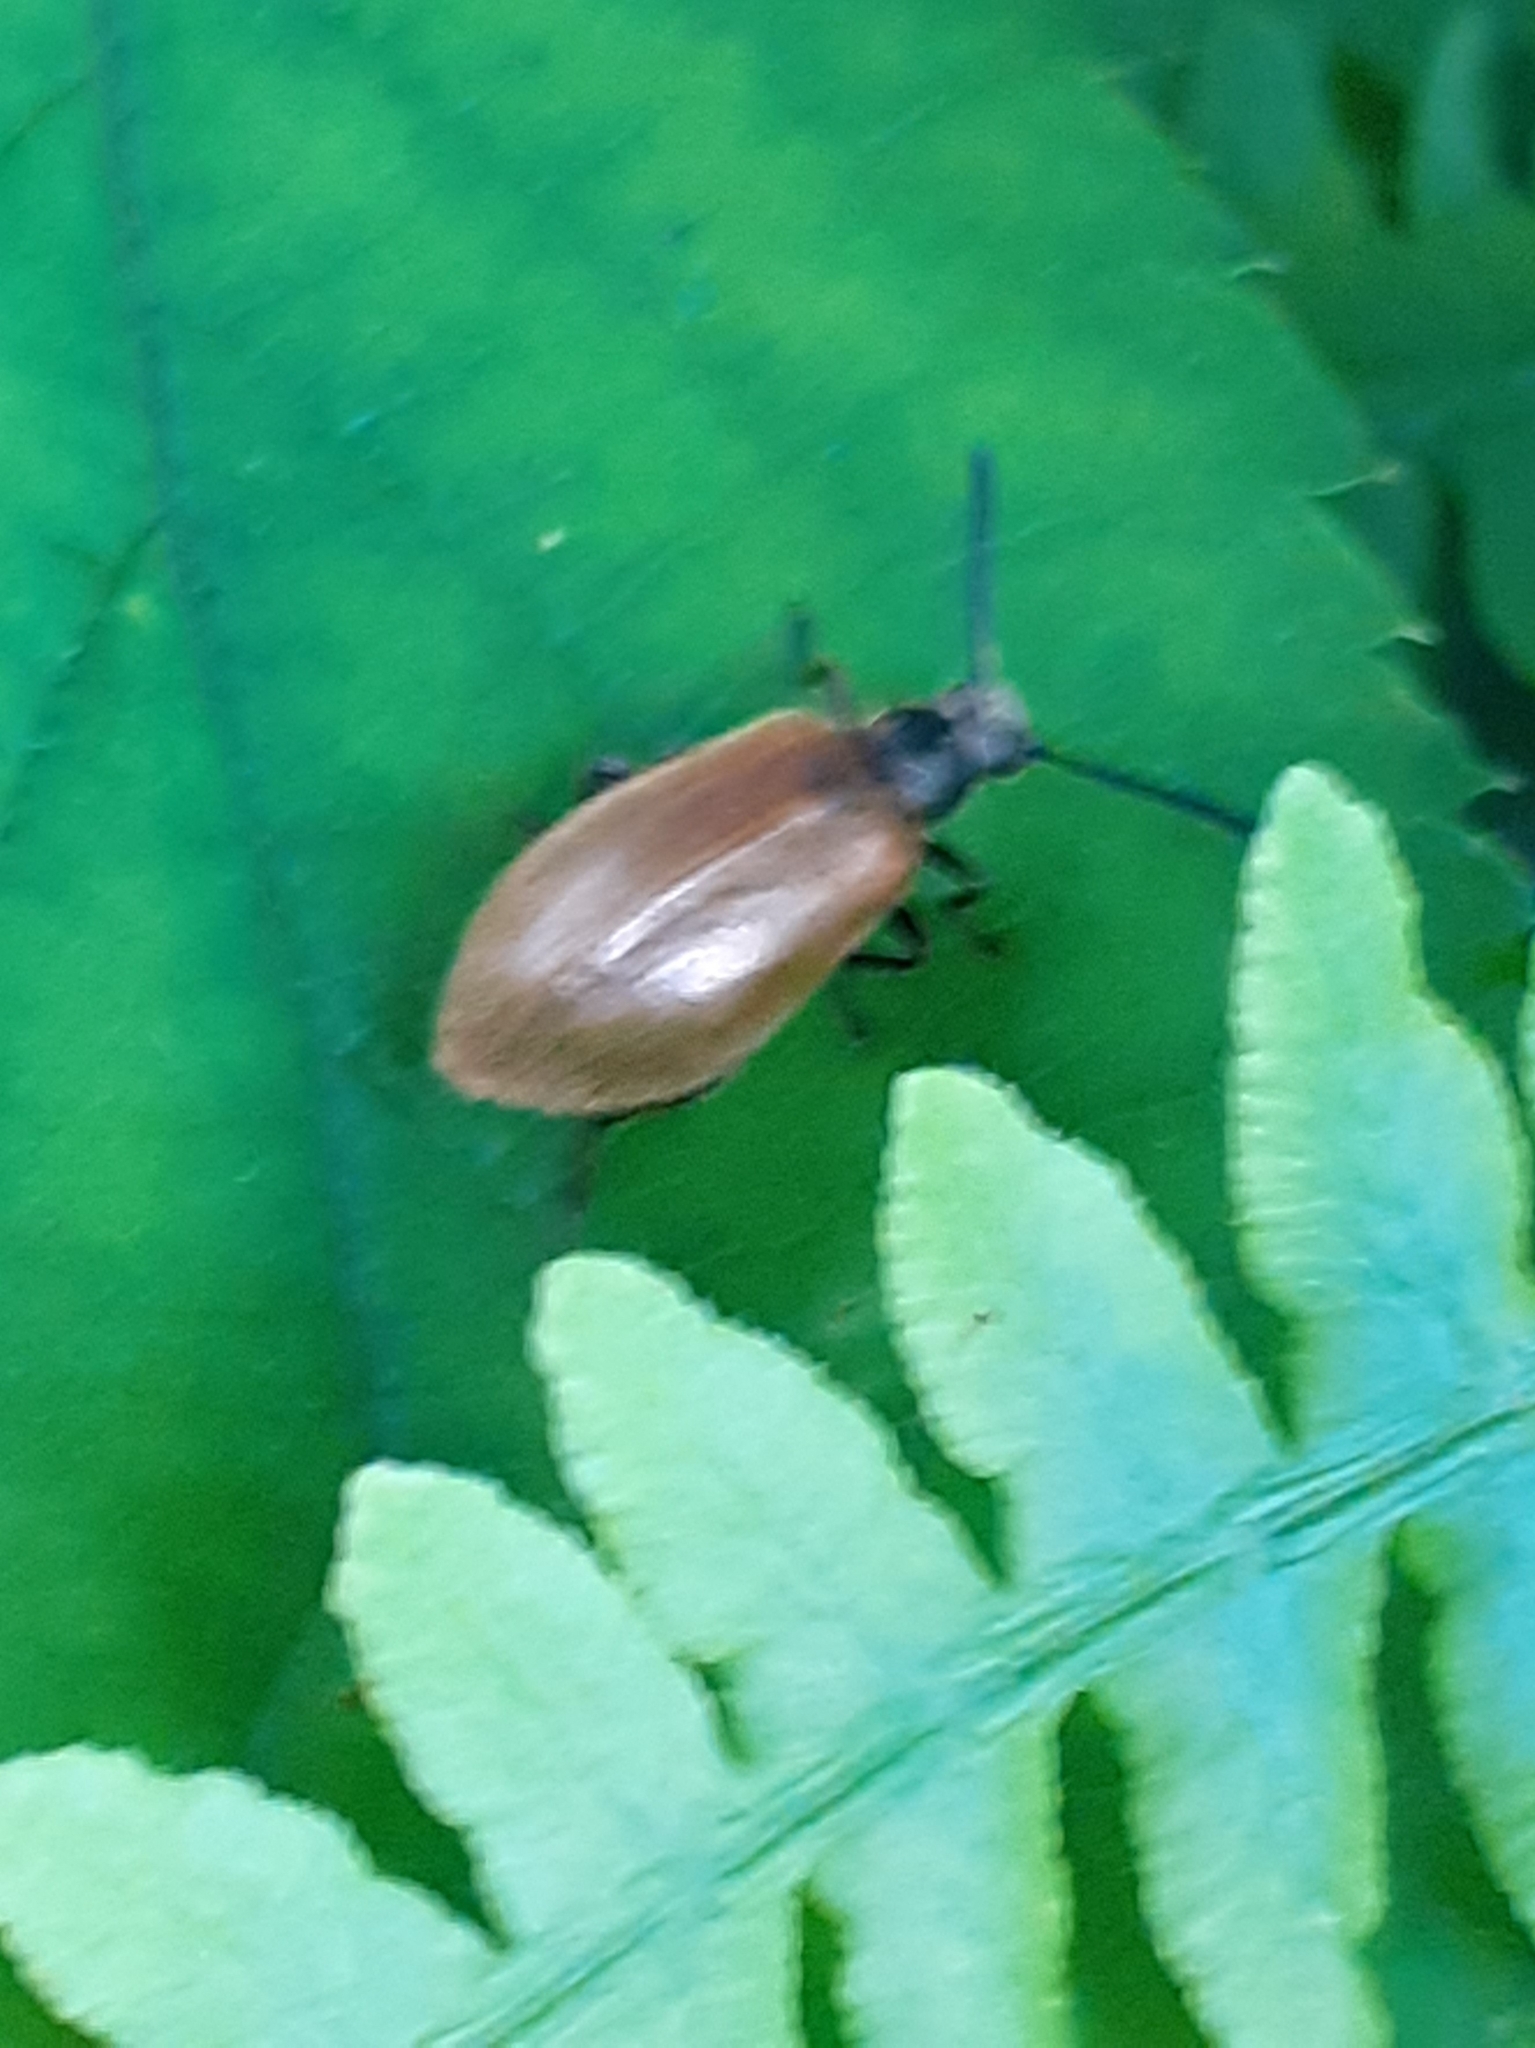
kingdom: Animalia
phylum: Arthropoda
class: Insecta
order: Coleoptera
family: Tenebrionidae
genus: Lagria
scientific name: Lagria hirta
